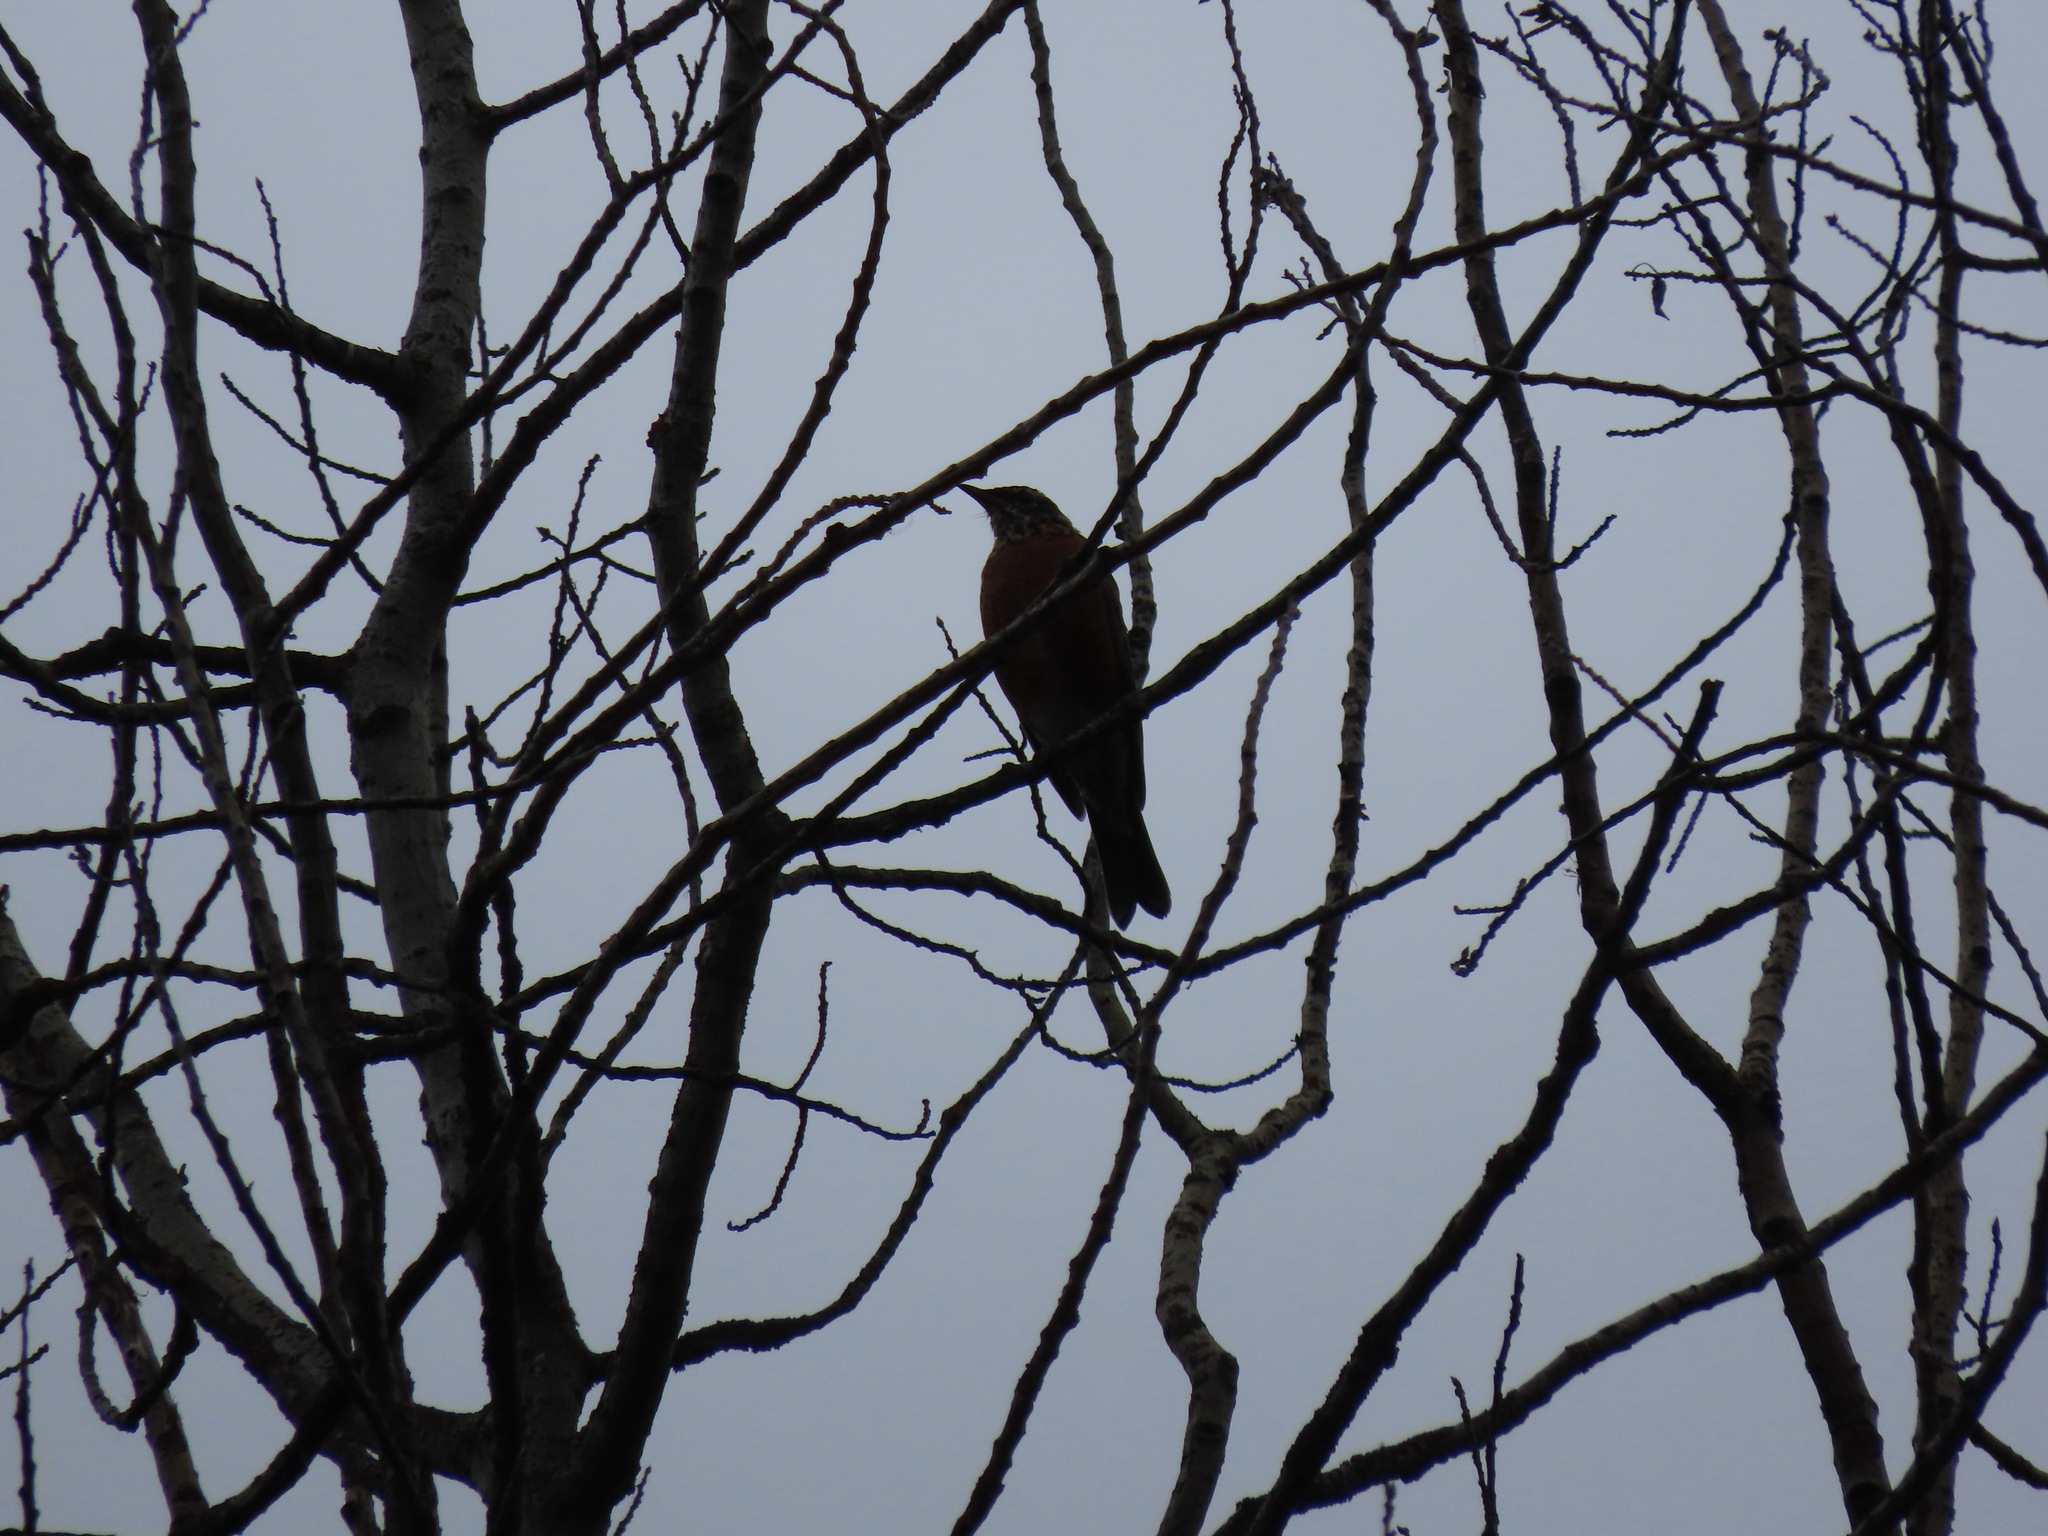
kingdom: Animalia
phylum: Chordata
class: Aves
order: Passeriformes
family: Turdidae
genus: Turdus
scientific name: Turdus migratorius
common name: American robin
